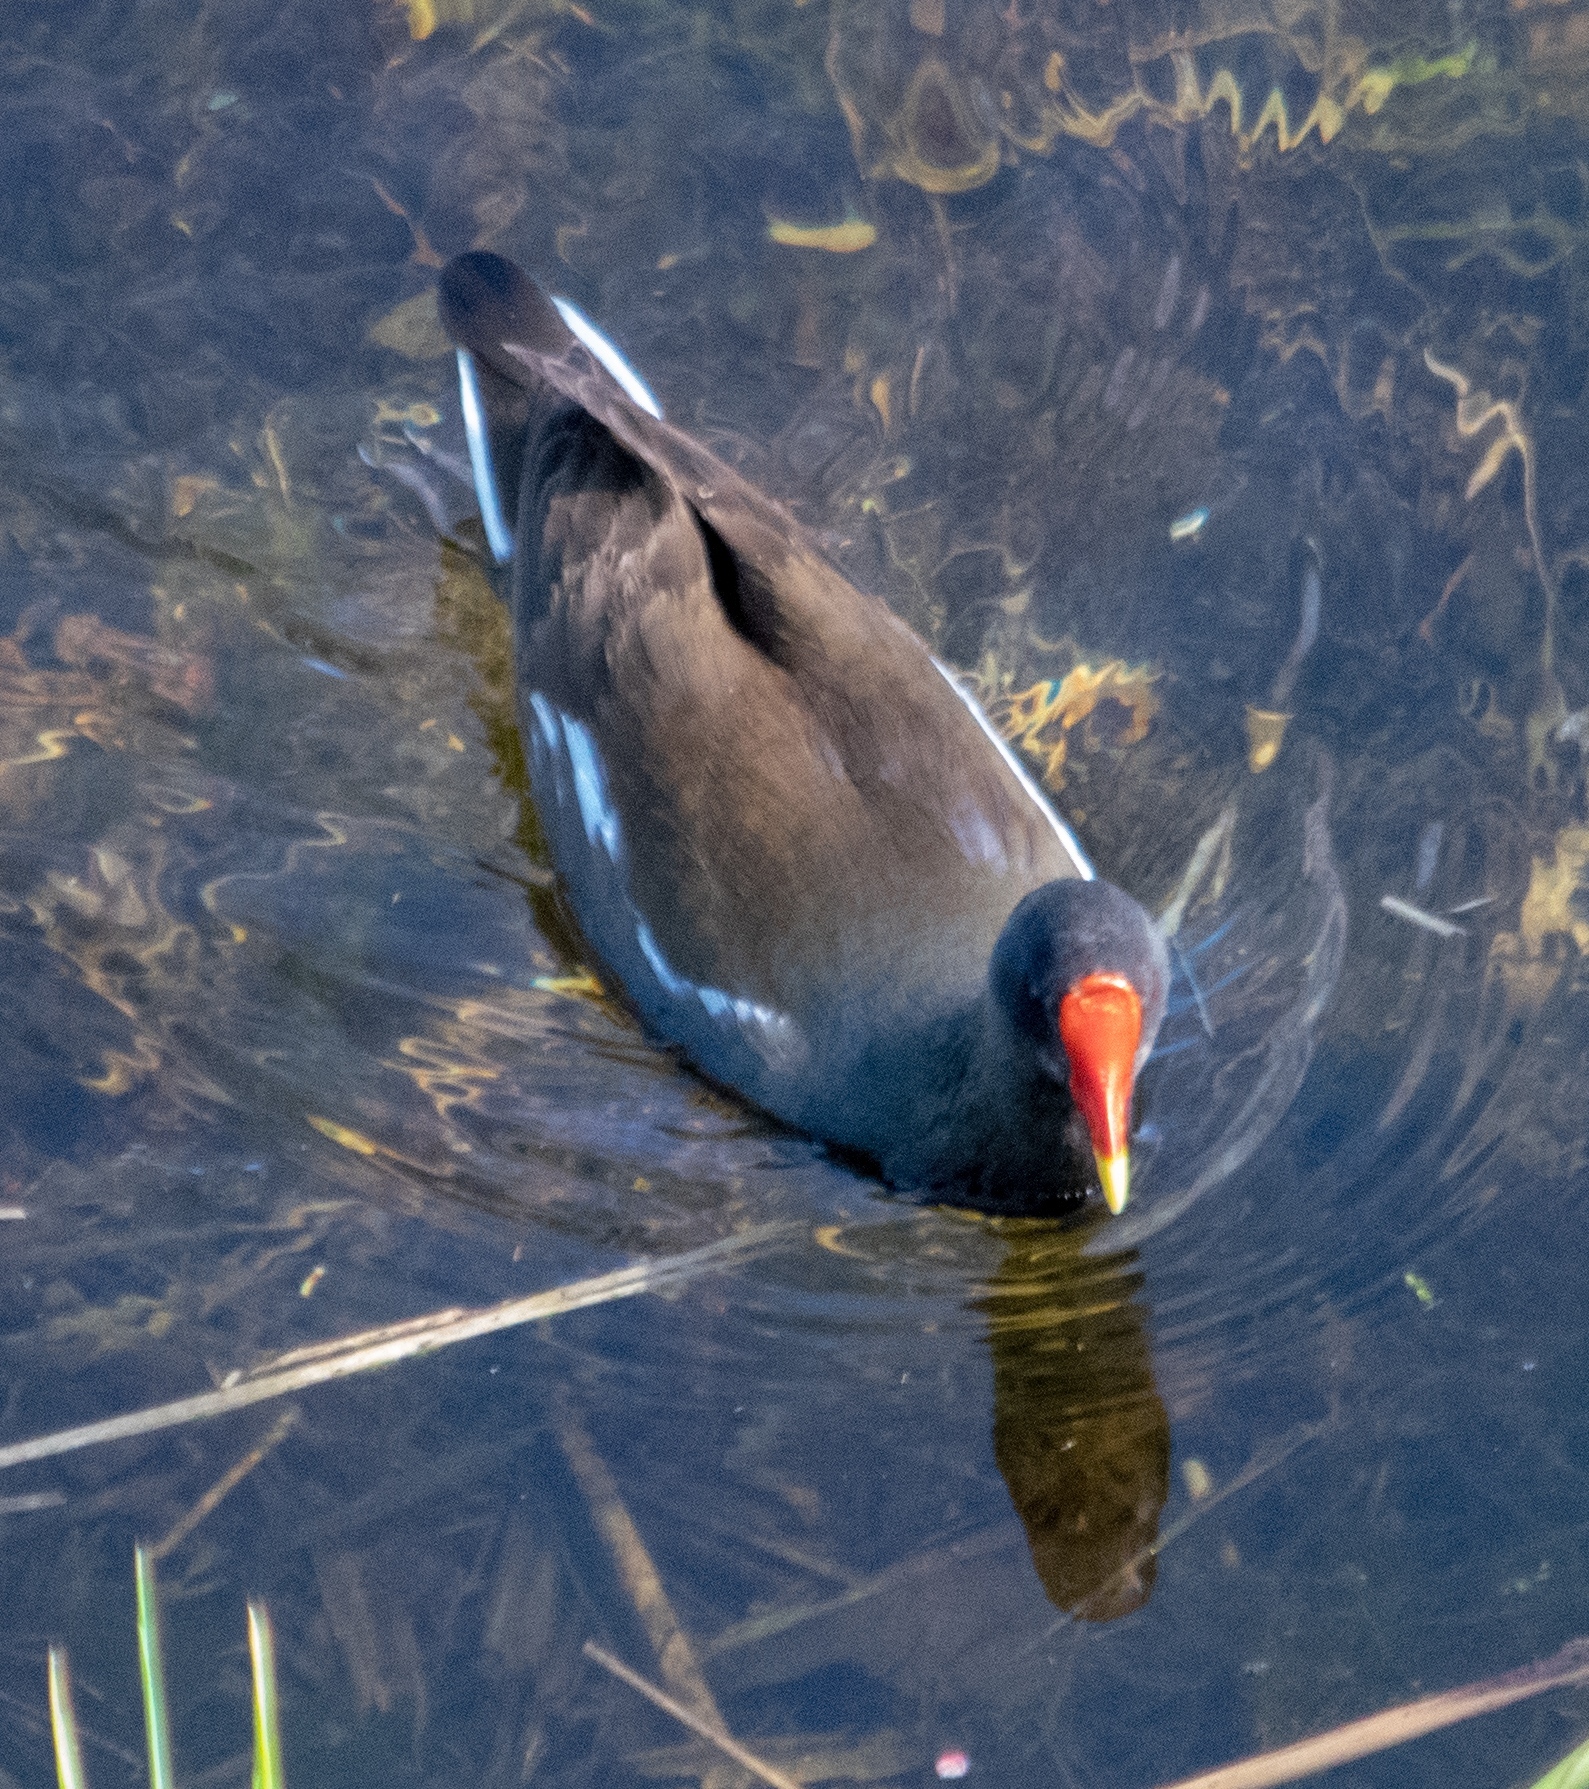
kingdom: Animalia
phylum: Chordata
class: Aves
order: Gruiformes
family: Rallidae
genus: Gallinula
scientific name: Gallinula chloropus
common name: Common moorhen
